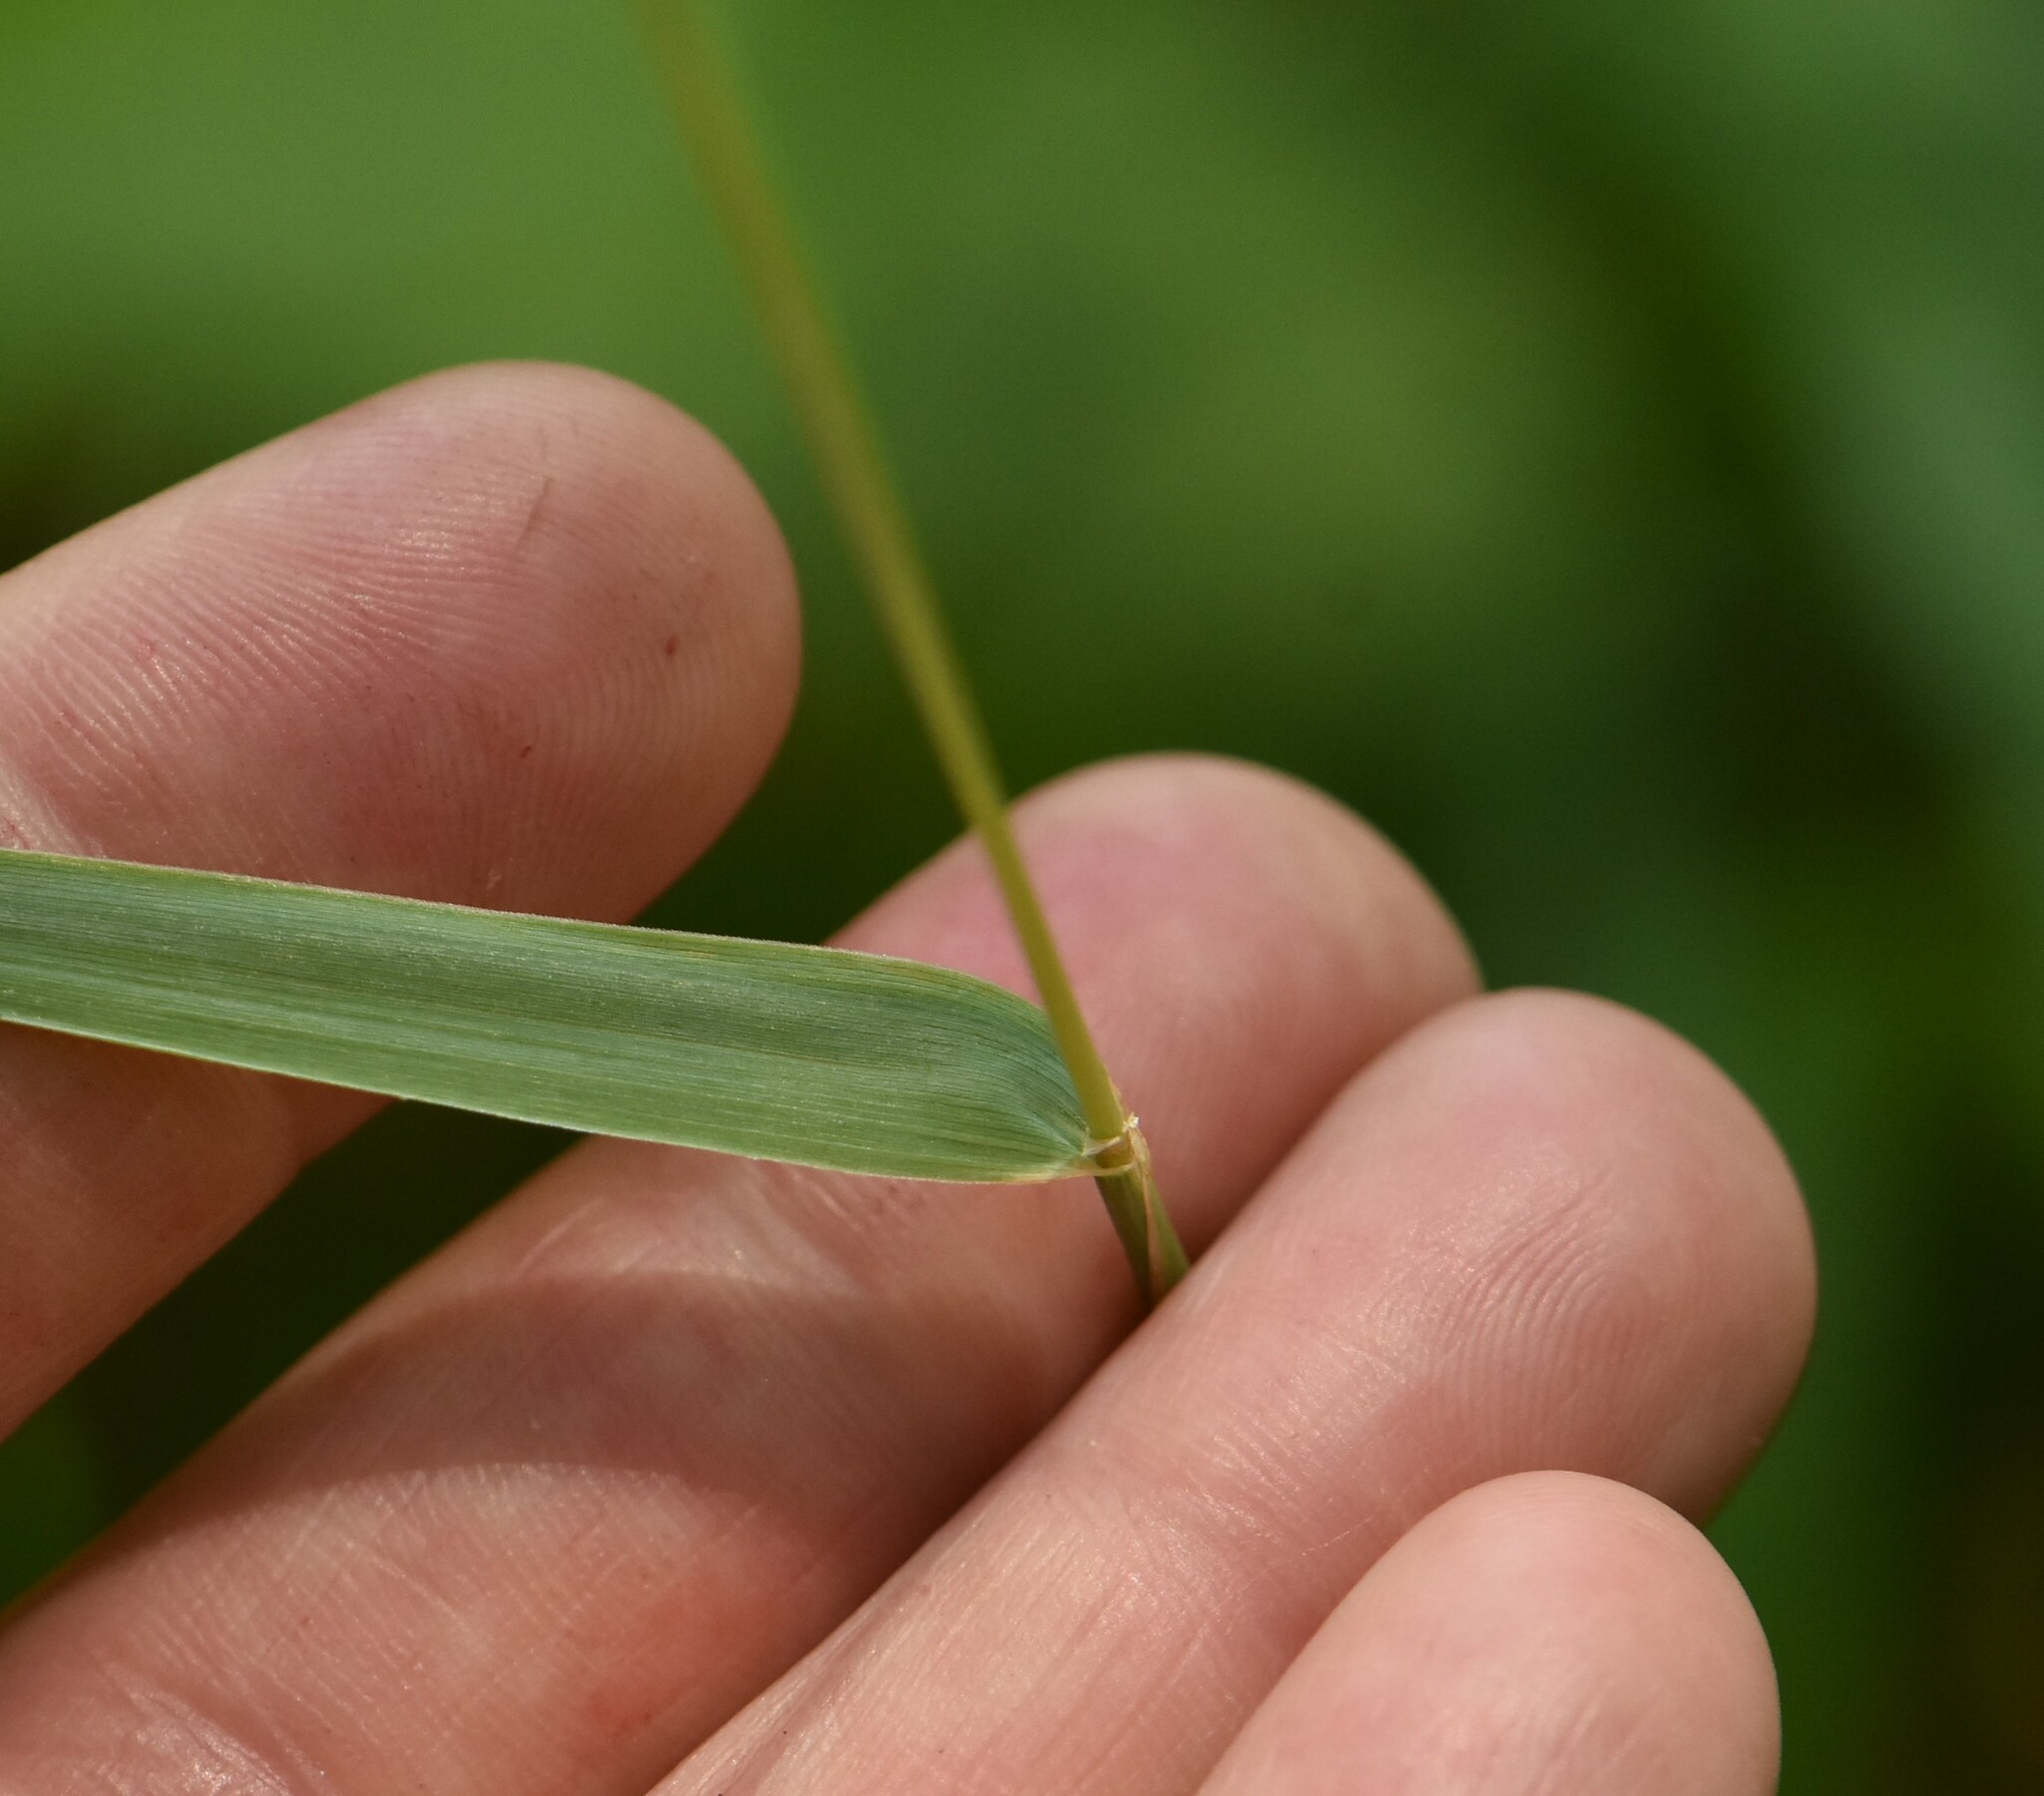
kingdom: Plantae
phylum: Tracheophyta
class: Liliopsida
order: Poales
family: Poaceae
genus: Phleum
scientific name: Phleum pratense
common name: Timothy grass
